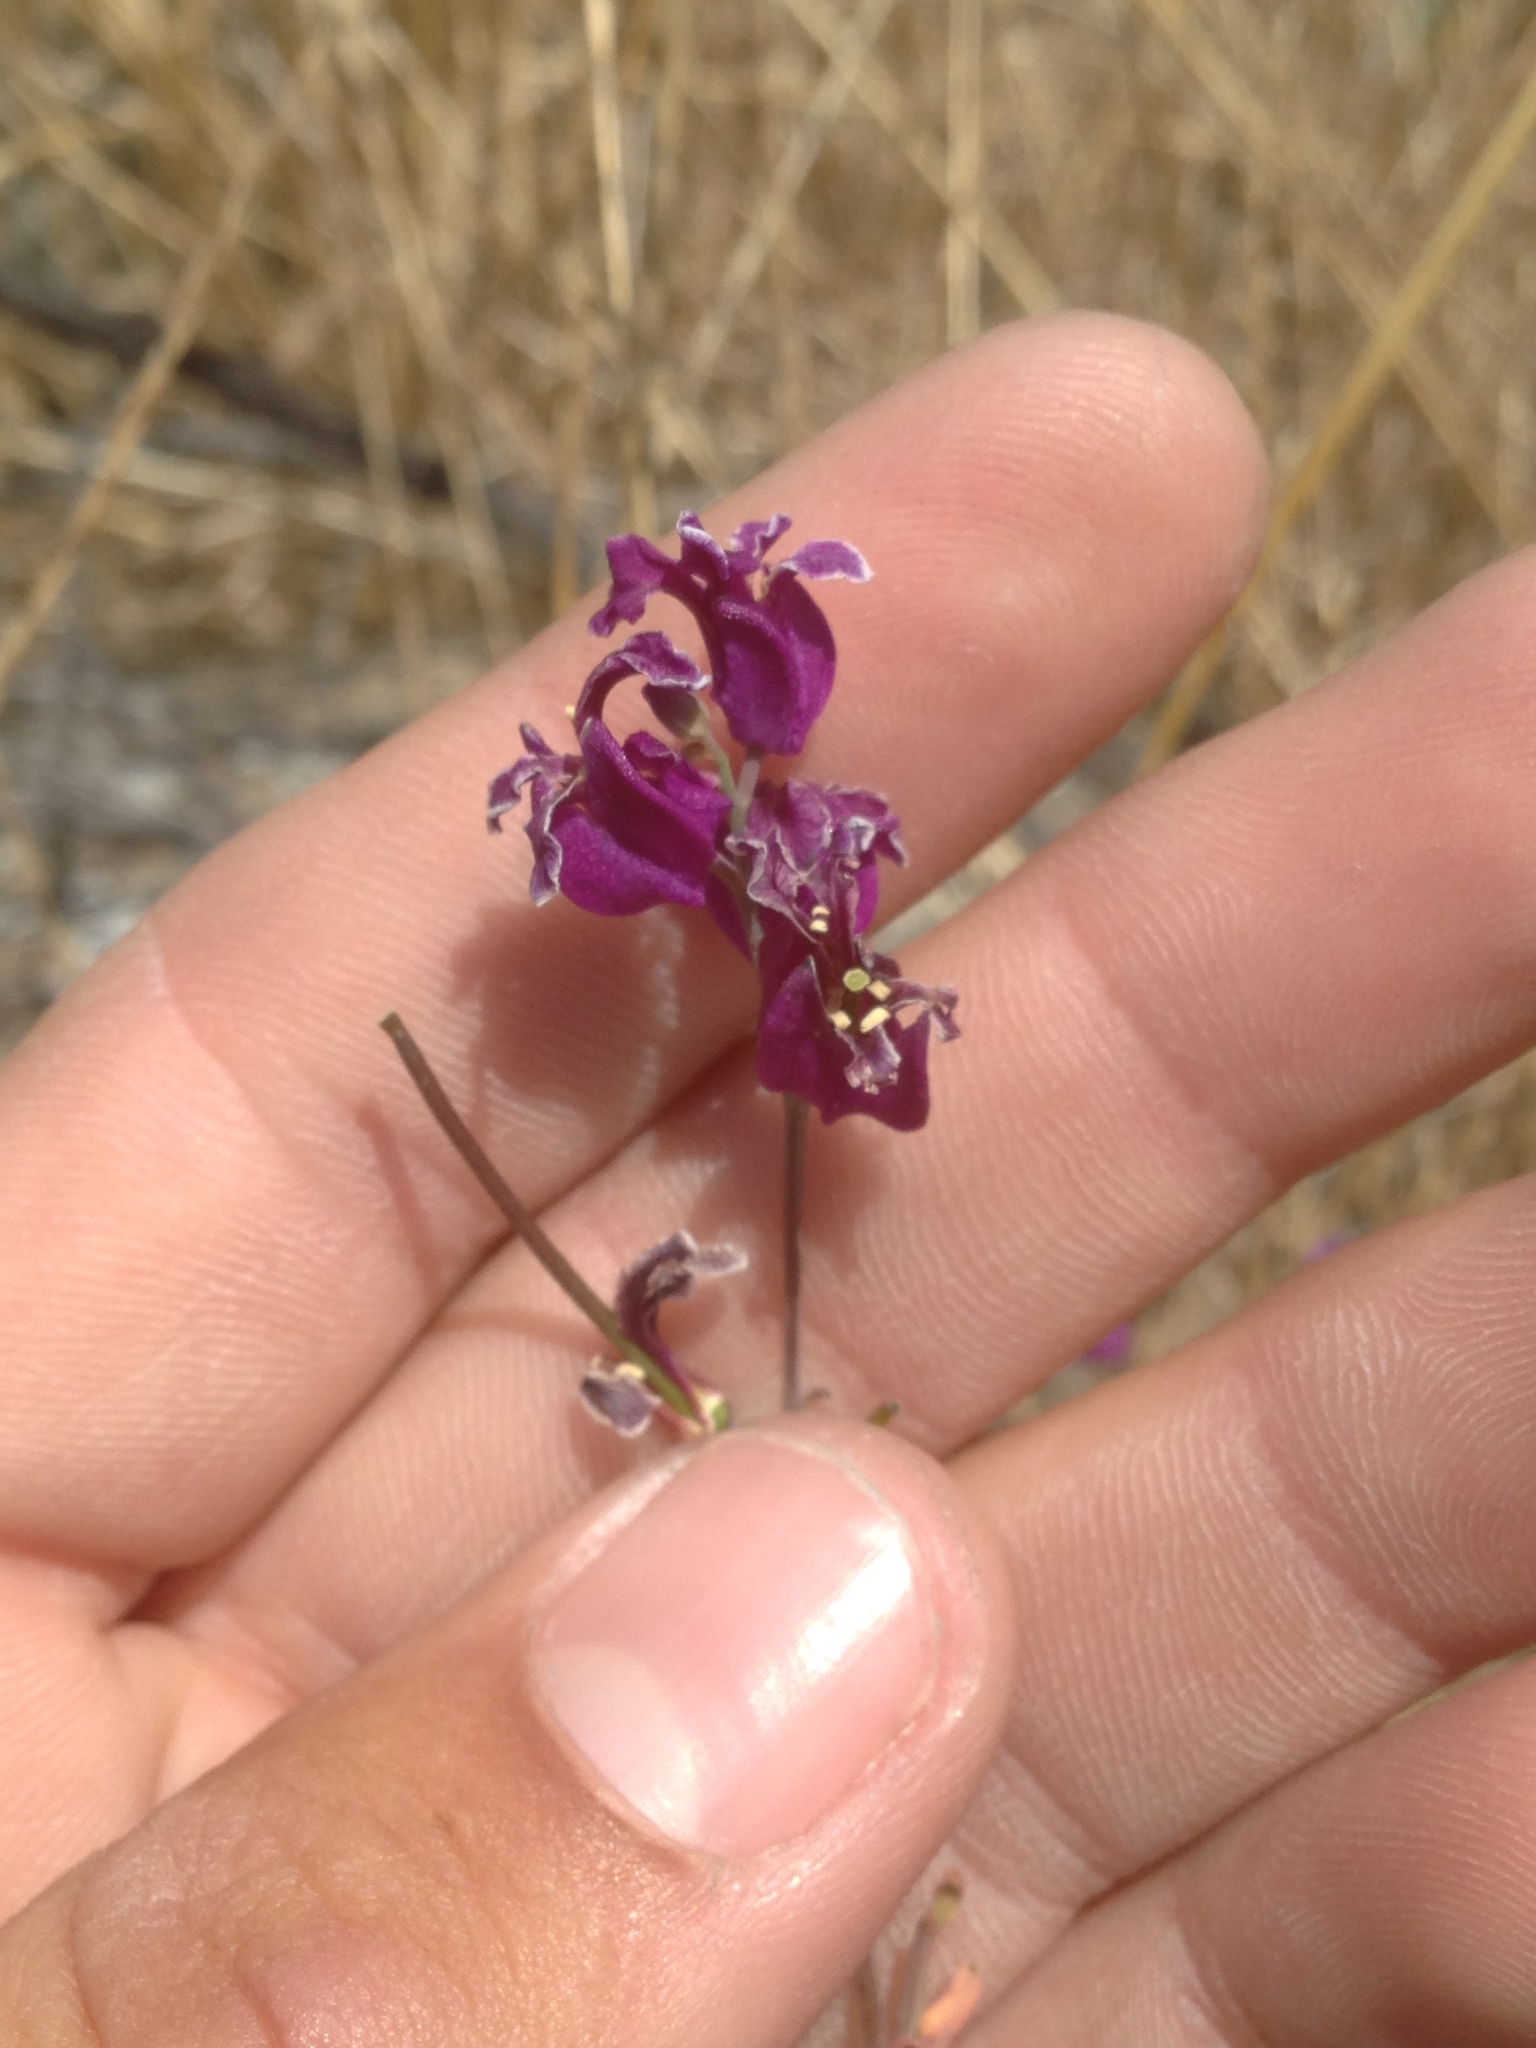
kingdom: Plantae
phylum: Tracheophyta
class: Magnoliopsida
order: Brassicales
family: Brassicaceae
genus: Streptanthus
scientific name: Streptanthus glandulosus
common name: Jewel-flower
